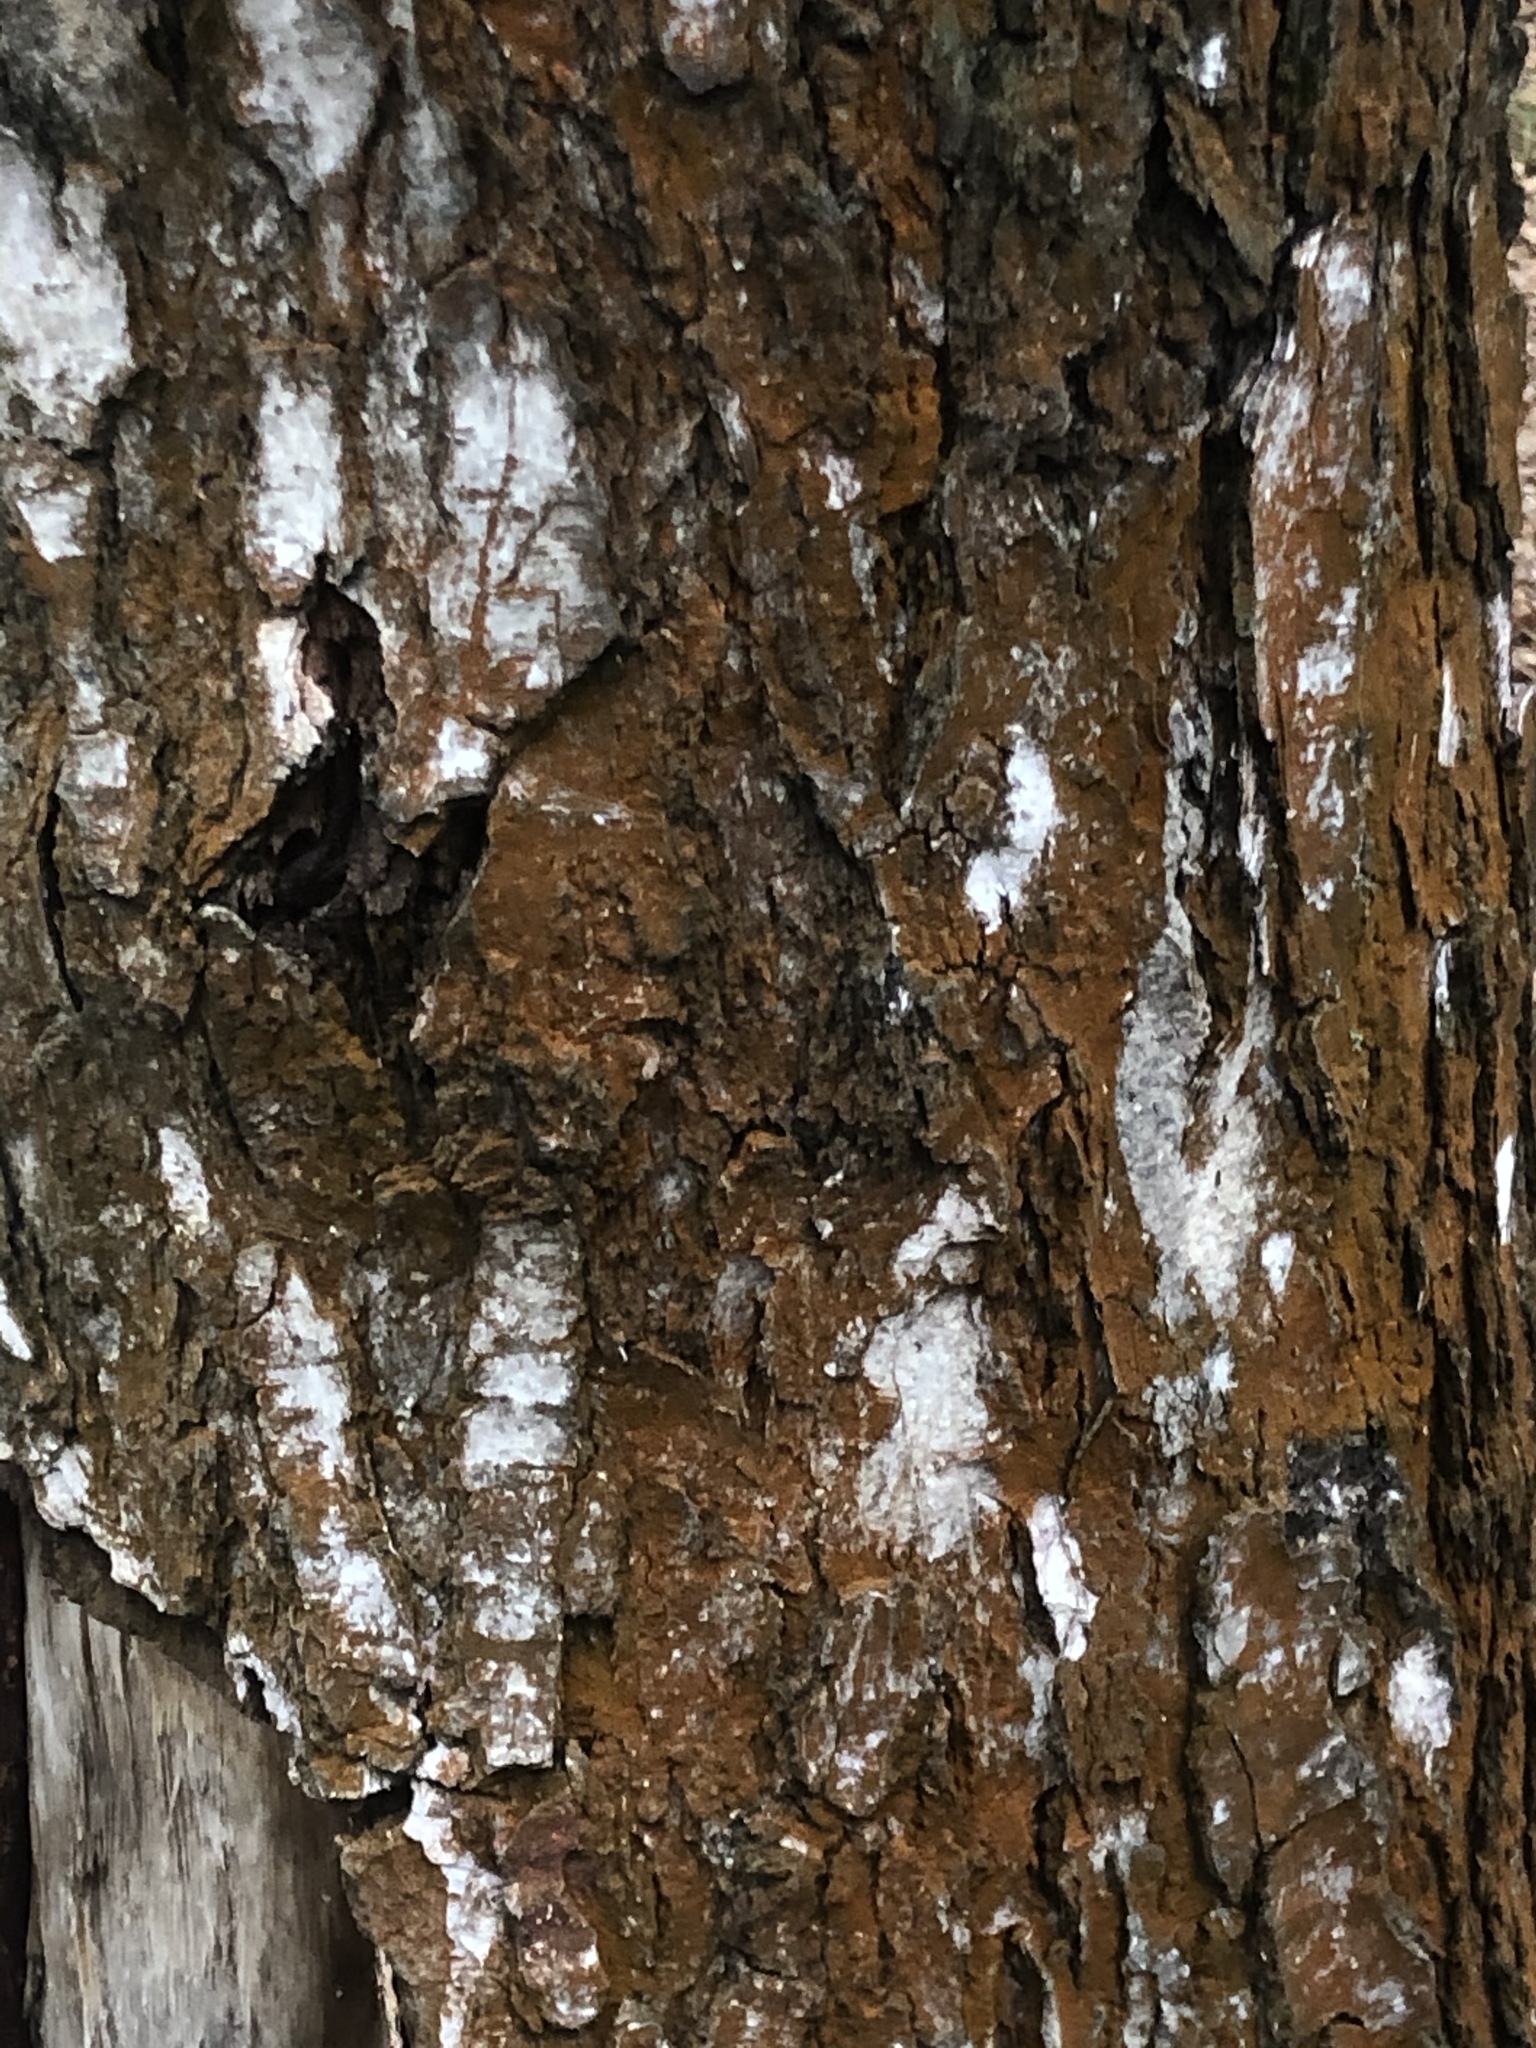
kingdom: Plantae
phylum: Chlorophyta
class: Ulvophyceae
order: Trentepohliales
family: Trentepohliaceae
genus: Trentepohlia
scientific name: Trentepohlia
